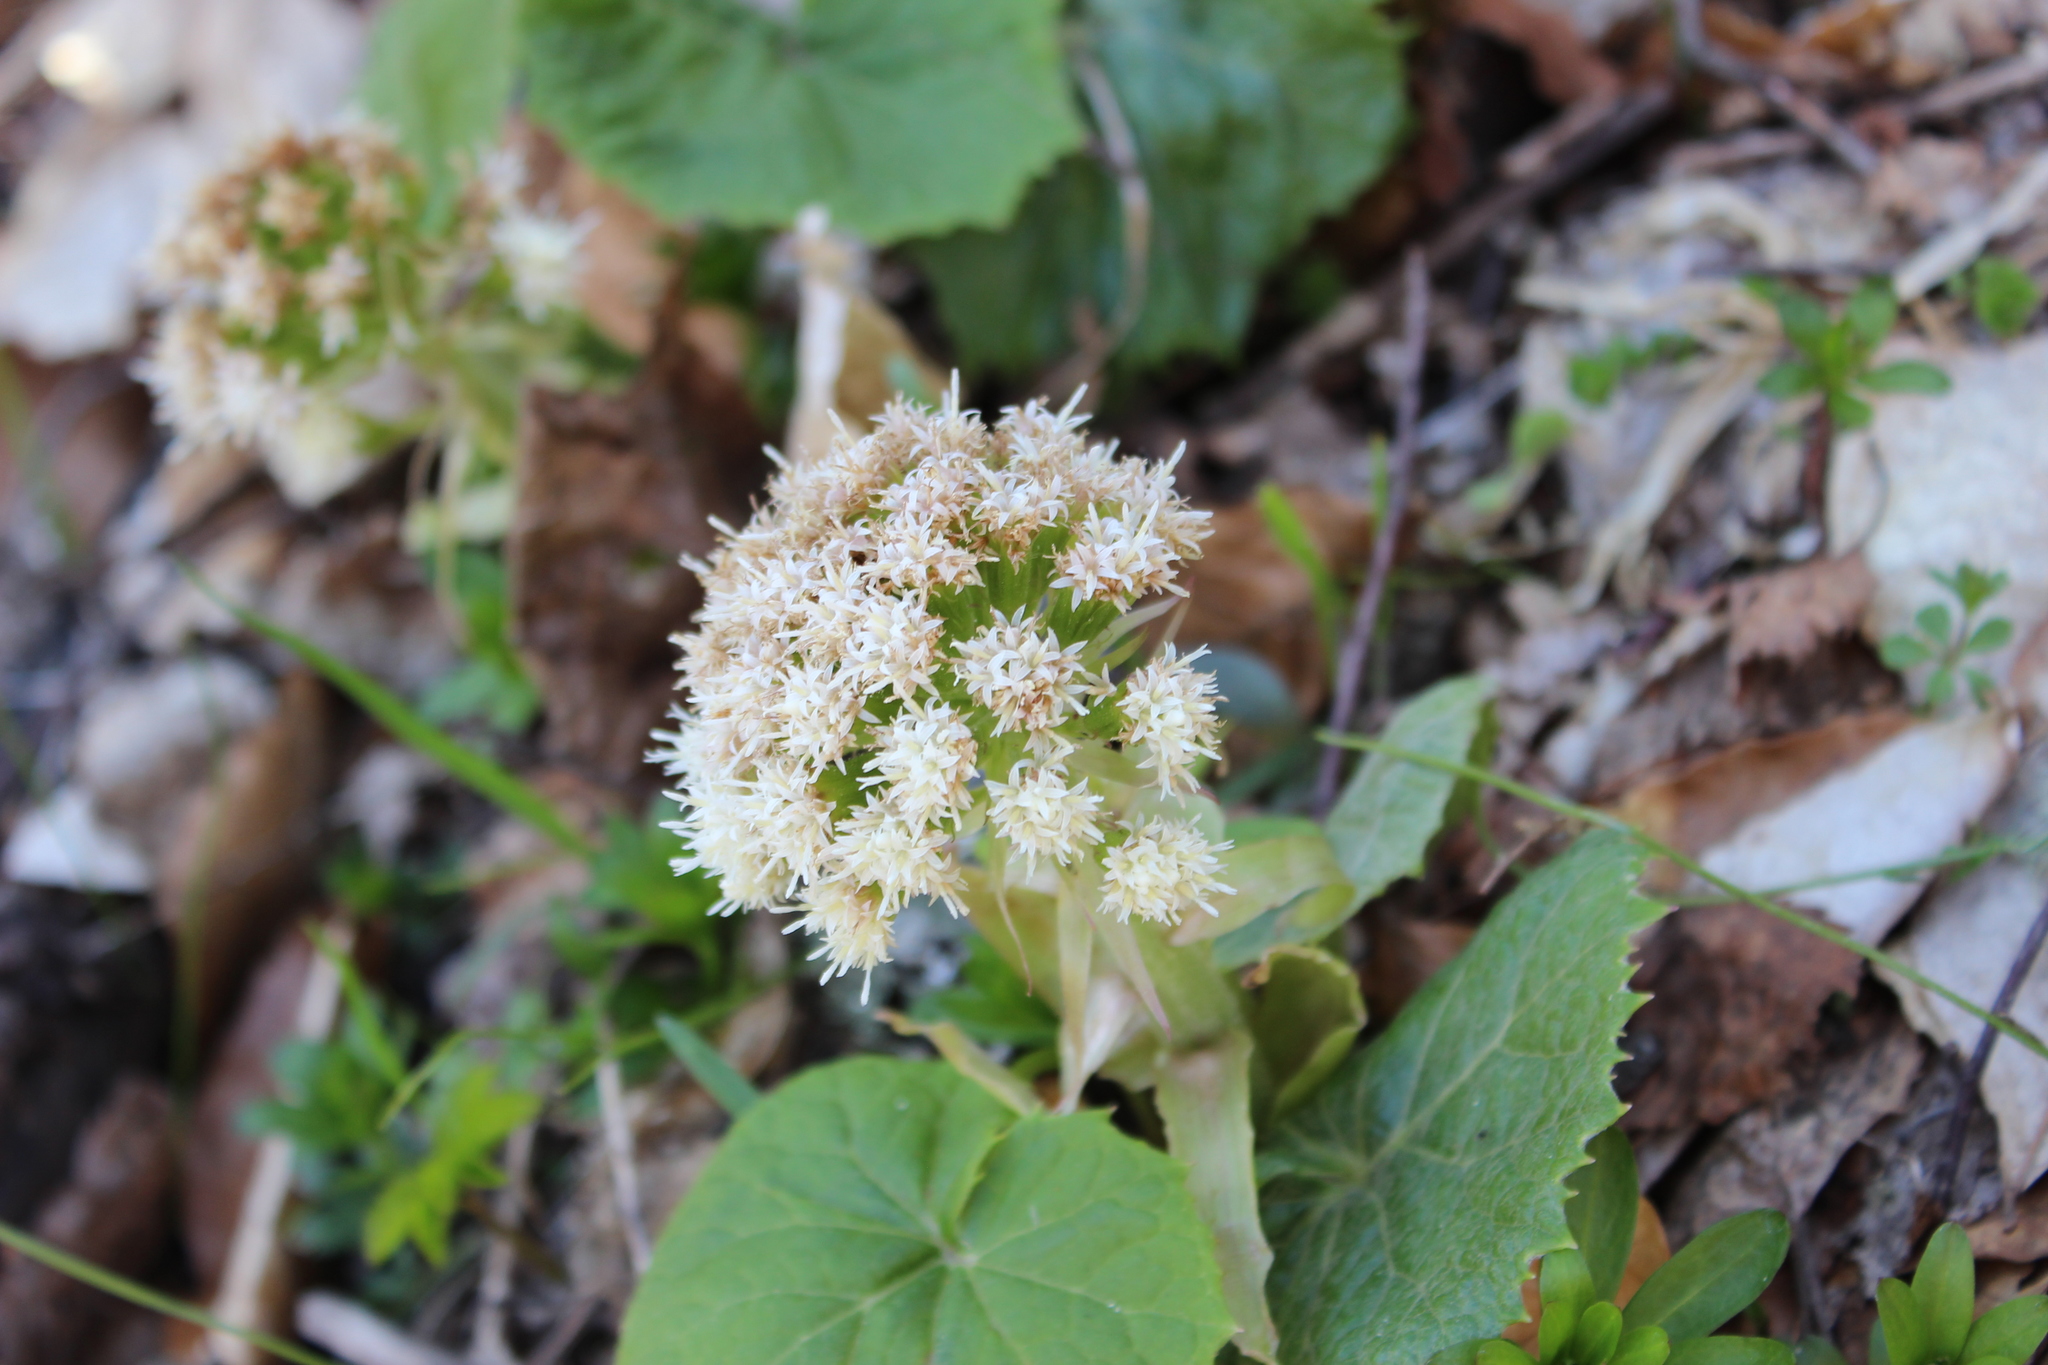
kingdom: Plantae
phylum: Tracheophyta
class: Magnoliopsida
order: Asterales
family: Asteraceae
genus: Petasites
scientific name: Petasites albus
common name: White butterbur
